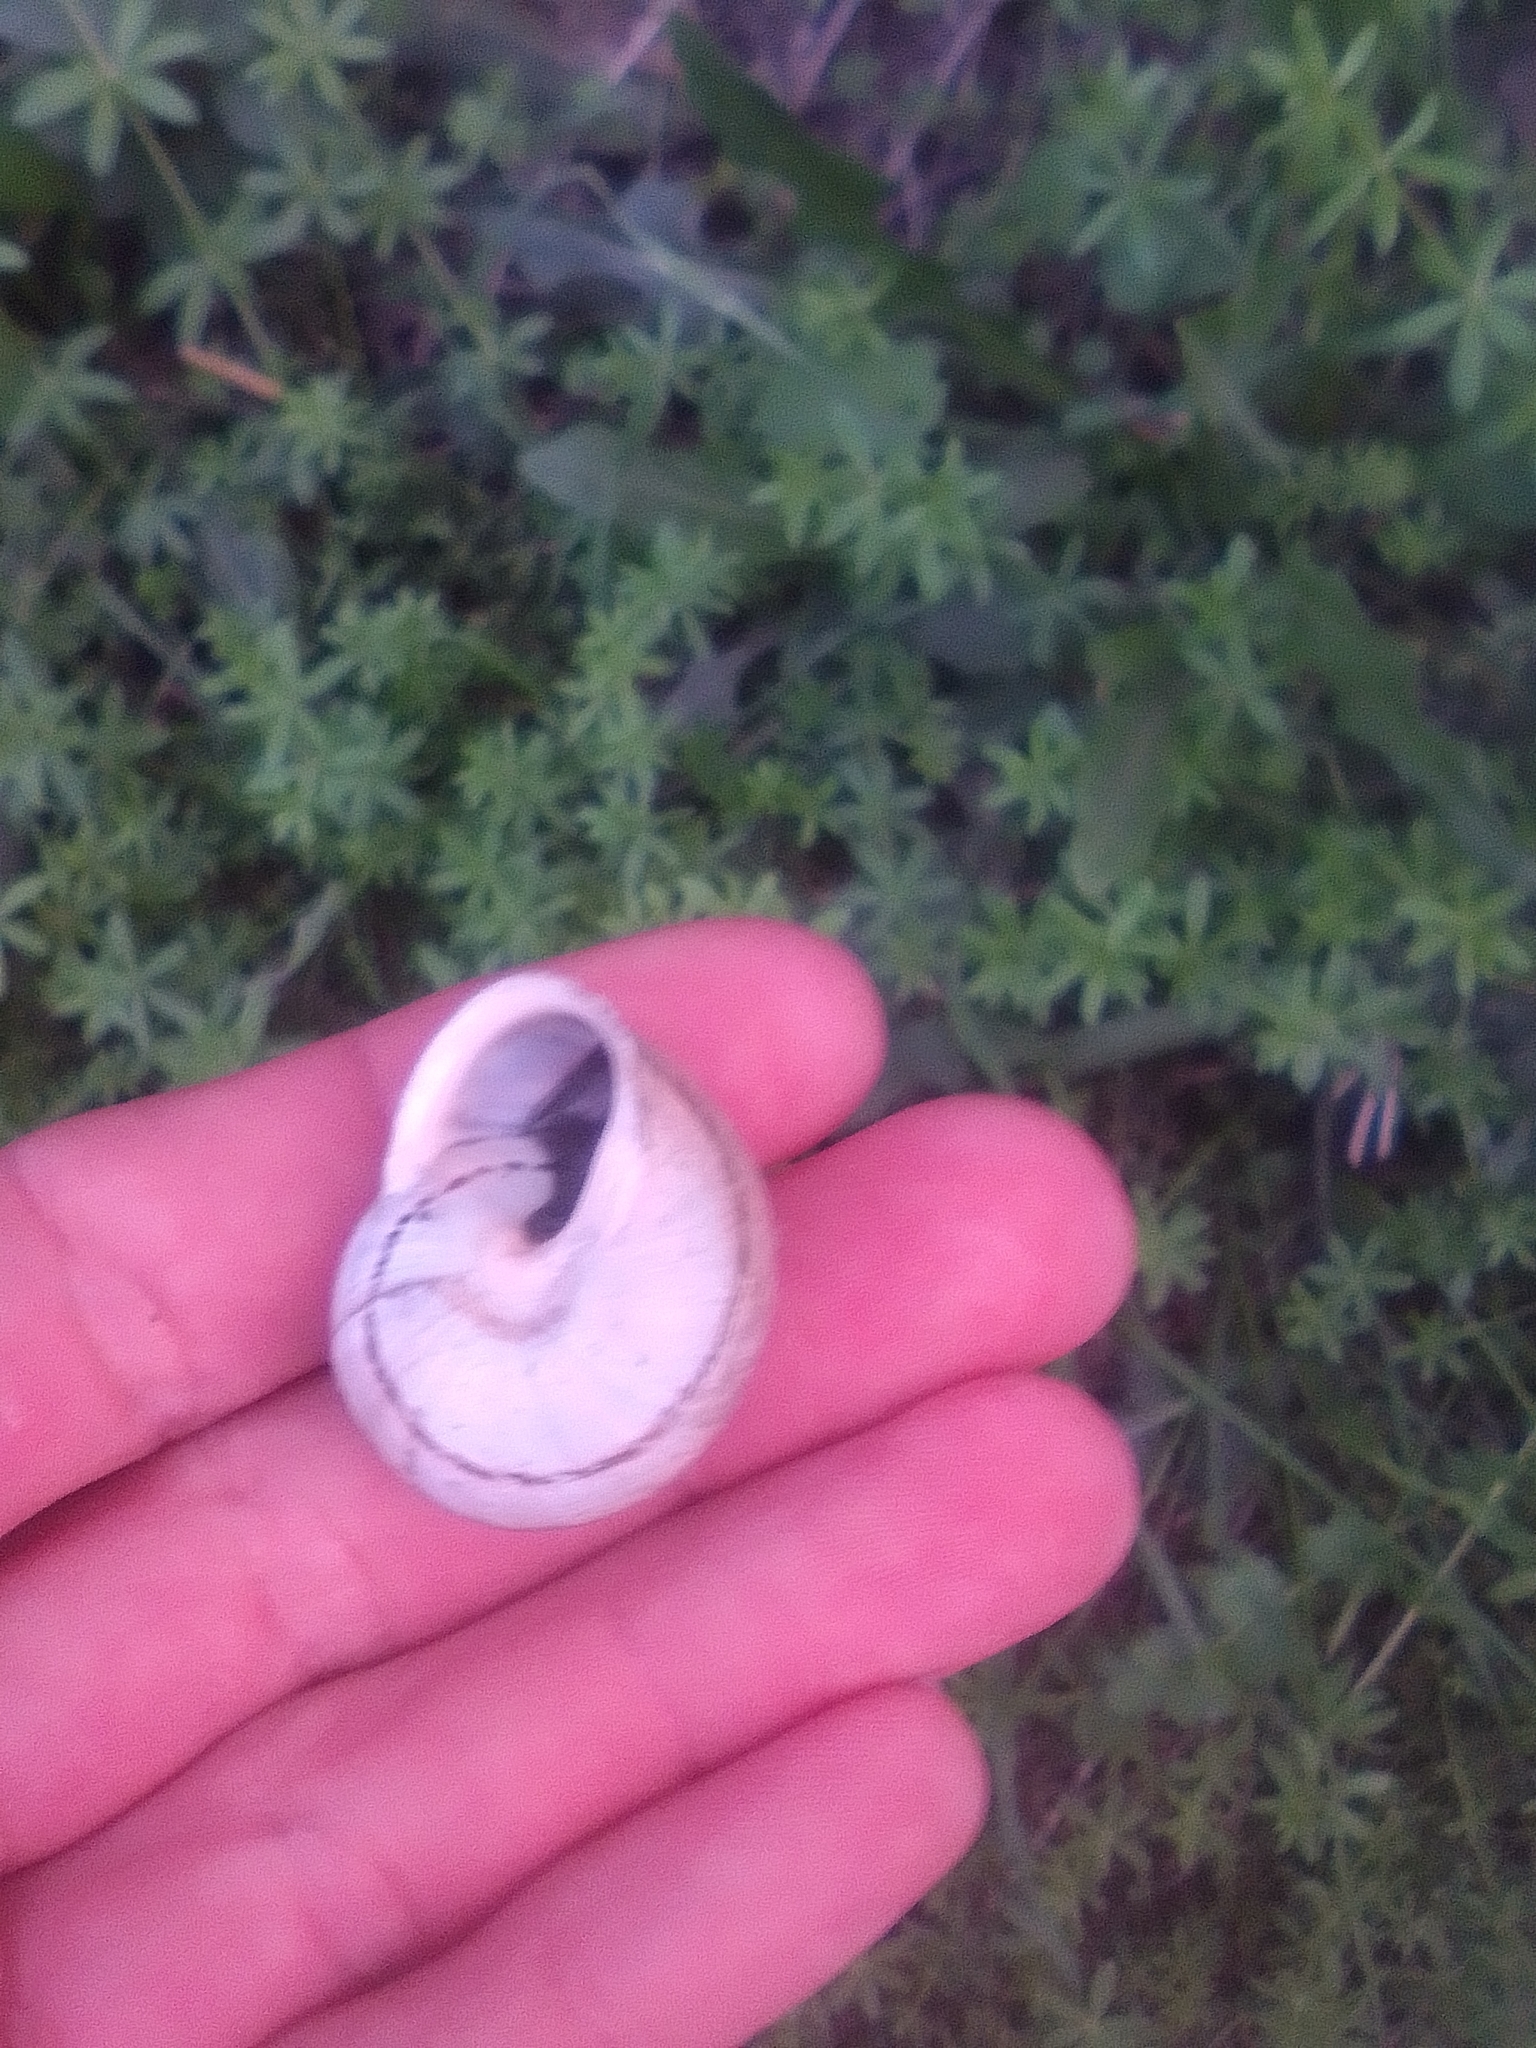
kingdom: Animalia
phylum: Mollusca
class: Gastropoda
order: Stylommatophora
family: Helicidae
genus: Eobania
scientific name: Eobania vermiculata
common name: Chocolateband snail
